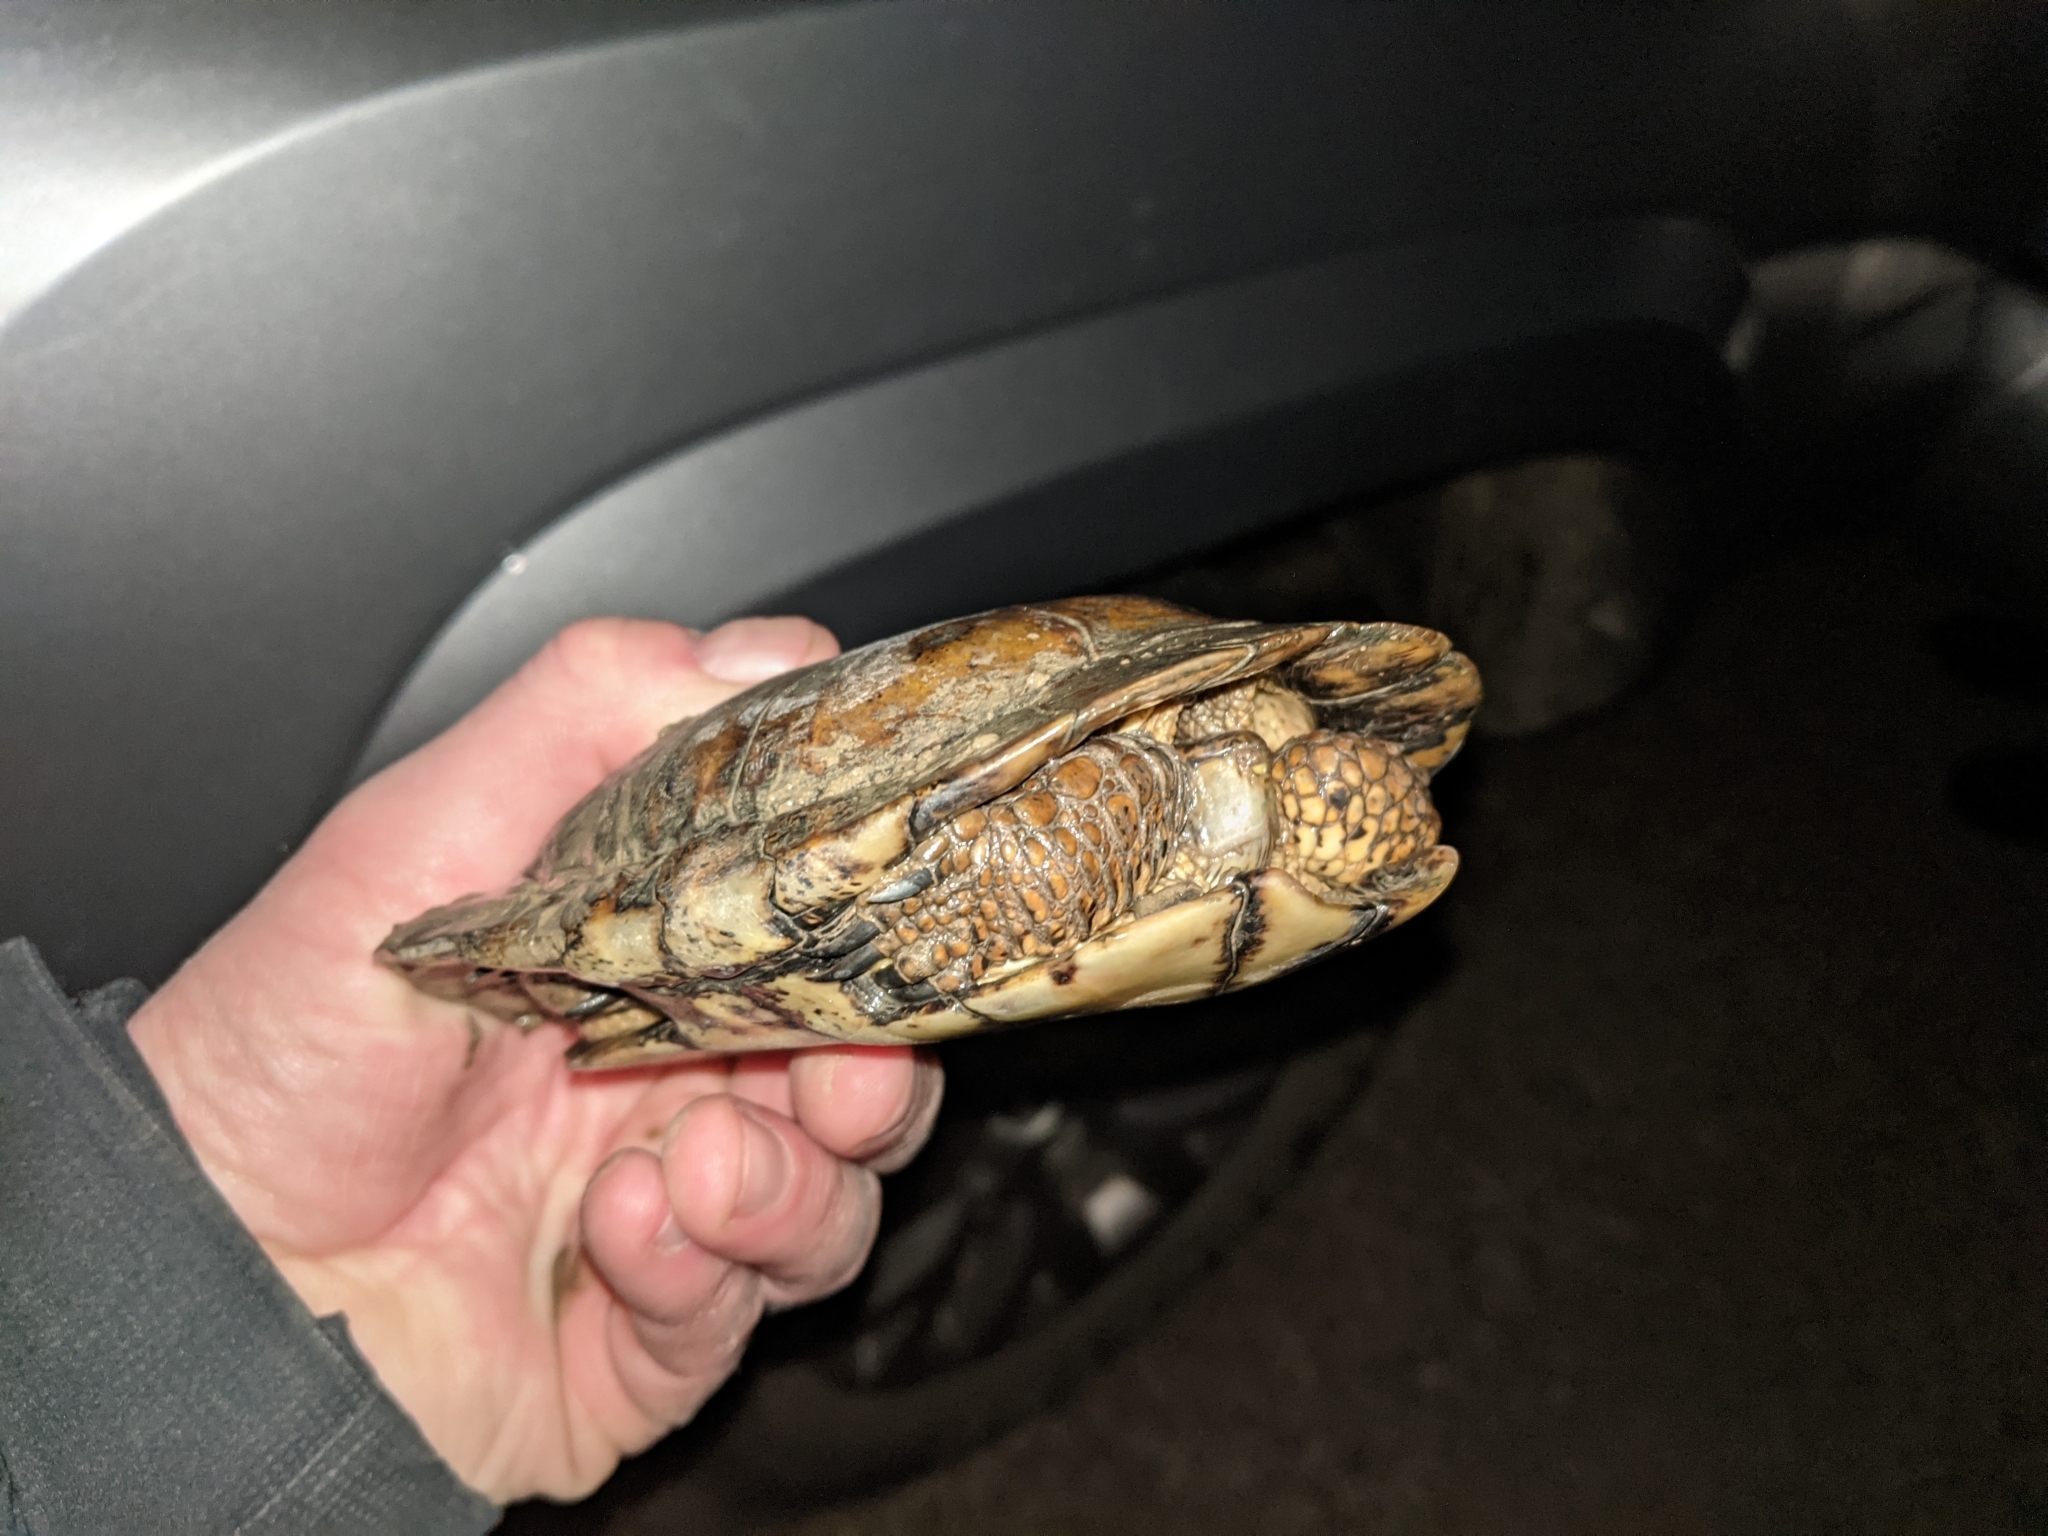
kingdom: Animalia
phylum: Chordata
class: Testudines
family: Emydidae
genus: Actinemys
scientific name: Actinemys marmorata
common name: Western pond turtle
